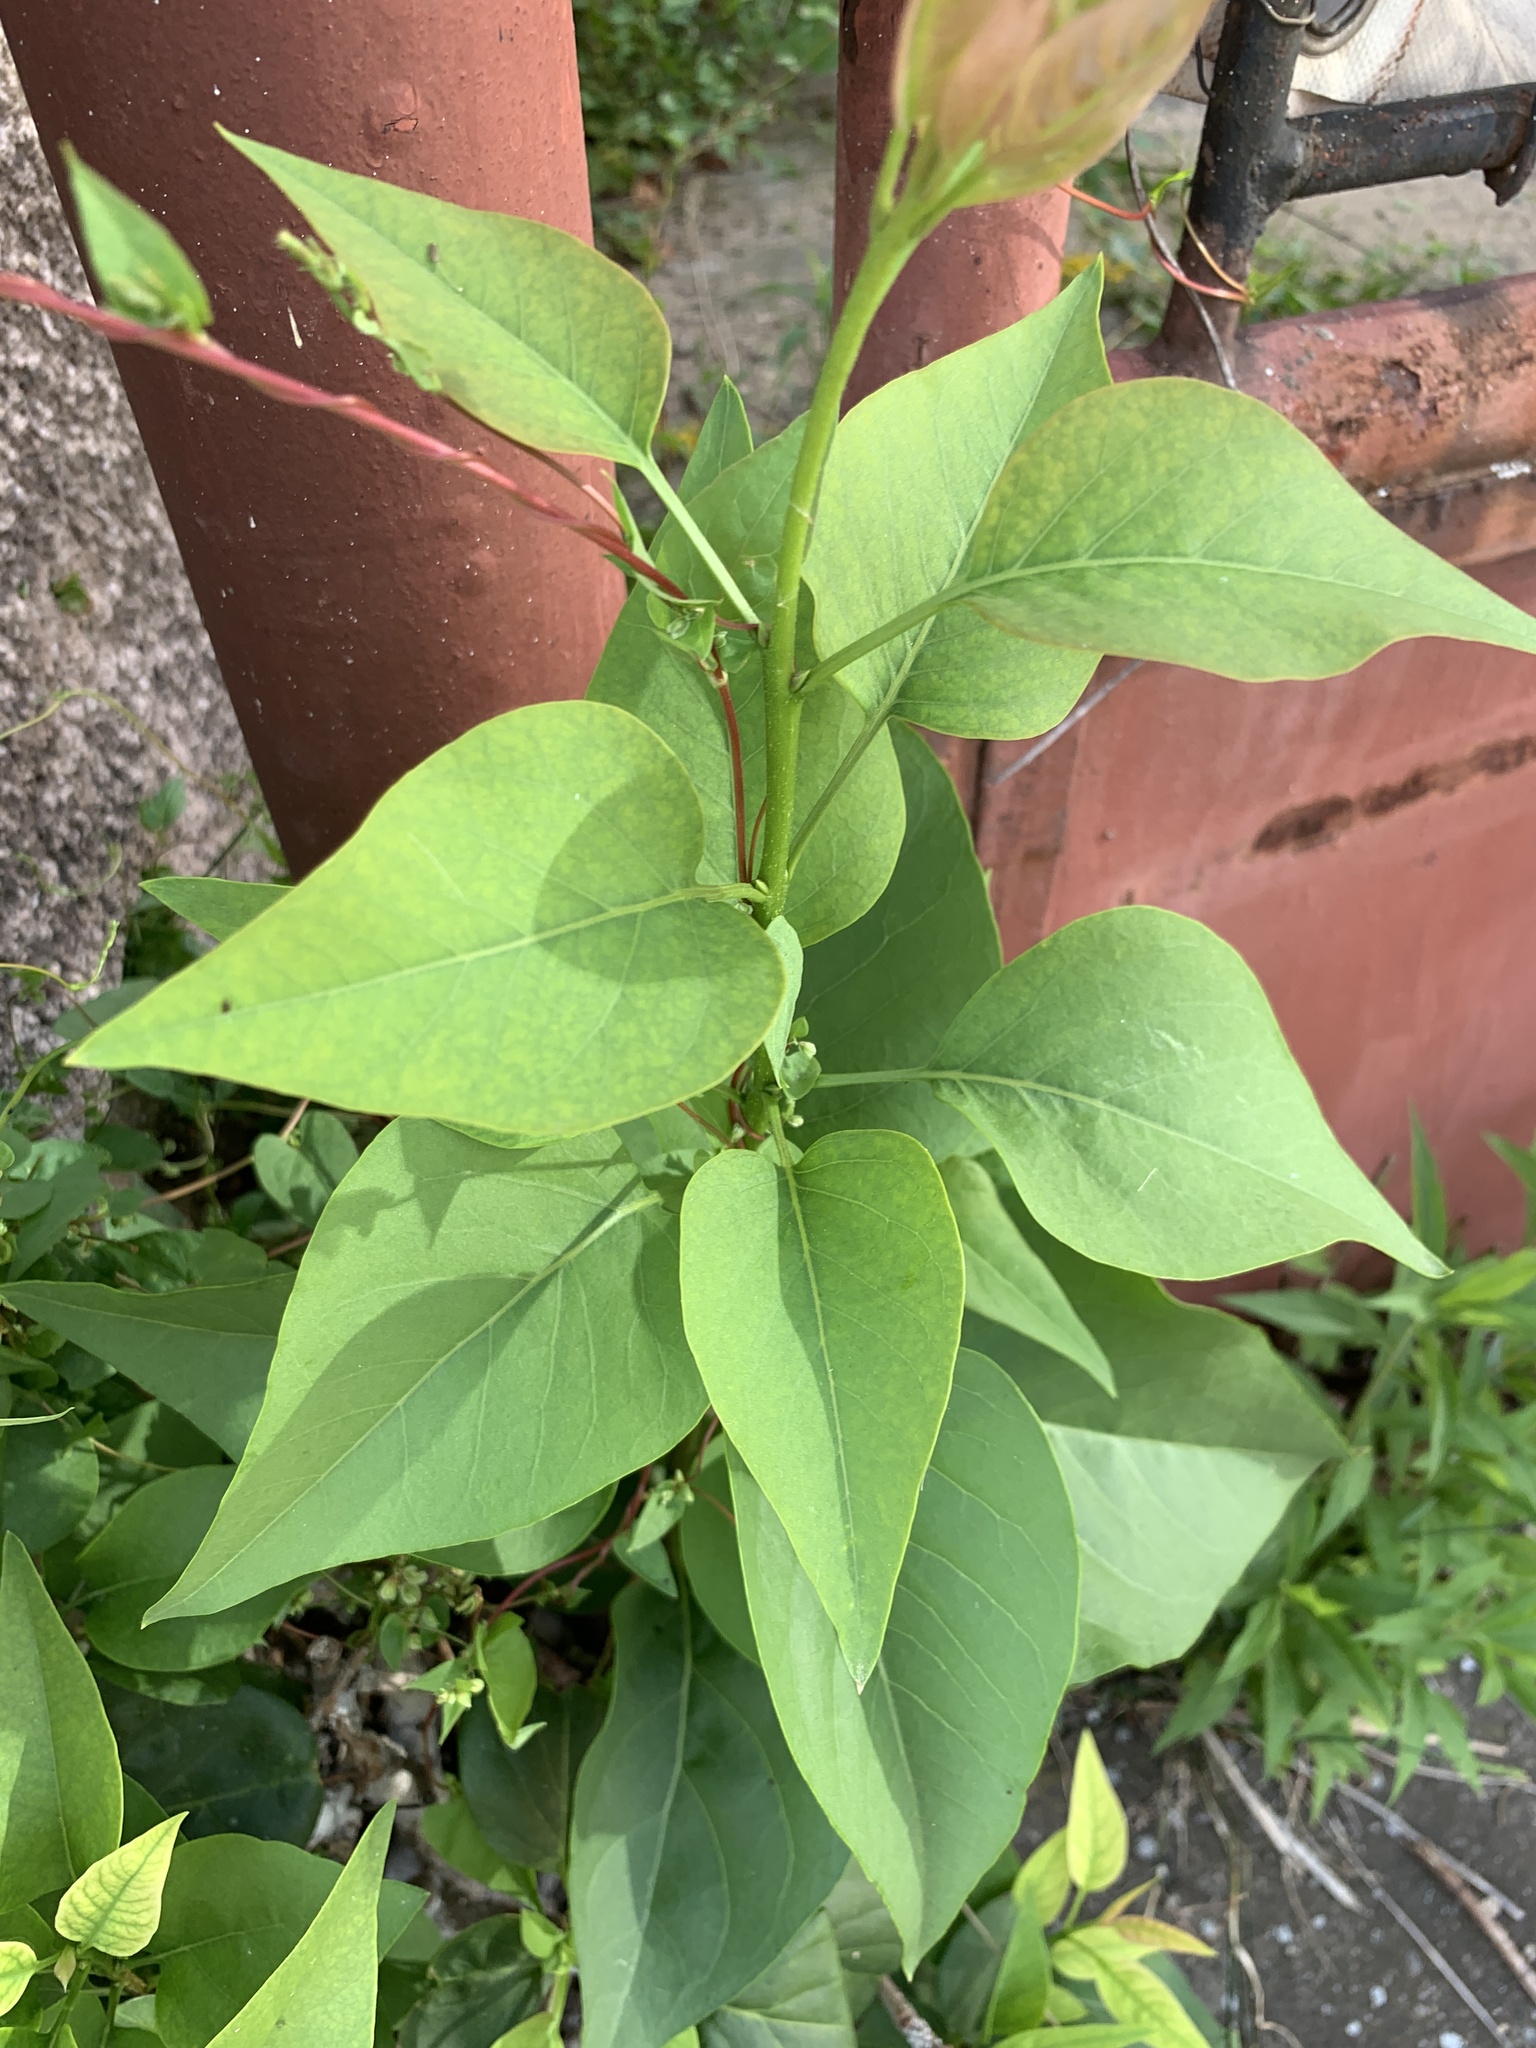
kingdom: Plantae
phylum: Tracheophyta
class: Magnoliopsida
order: Lamiales
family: Oleaceae
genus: Syringa
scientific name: Syringa vulgaris
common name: Common lilac
